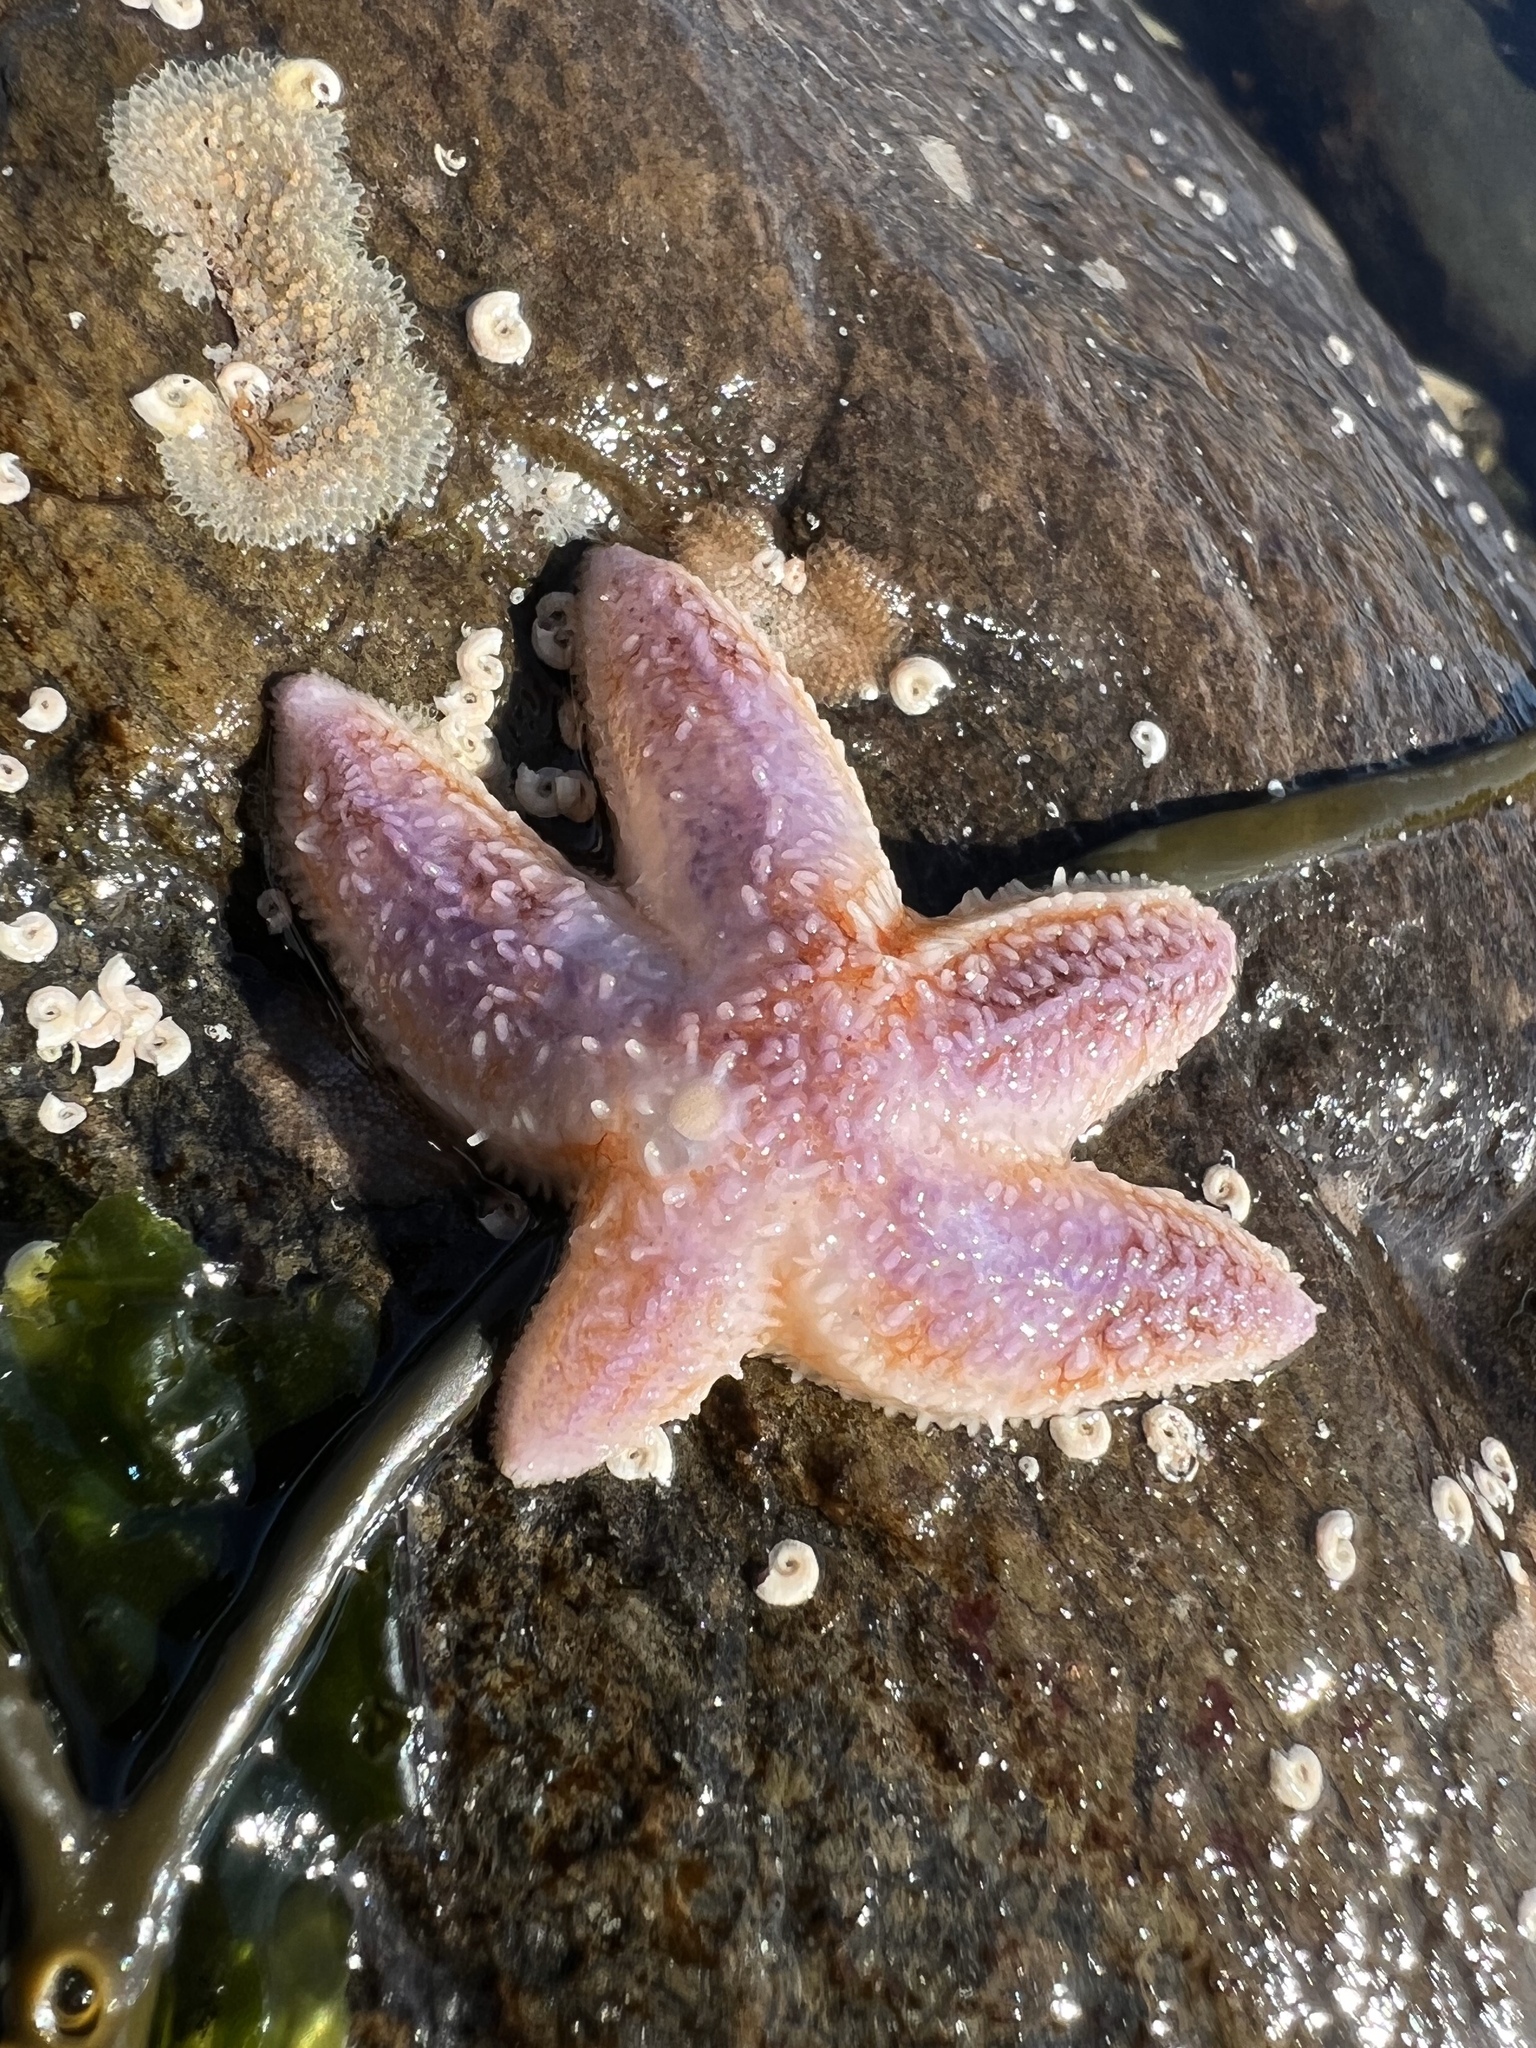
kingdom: Animalia
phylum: Echinodermata
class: Asteroidea
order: Forcipulatida
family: Asteriidae
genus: Asterias
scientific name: Asterias rubens
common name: Common starfish
